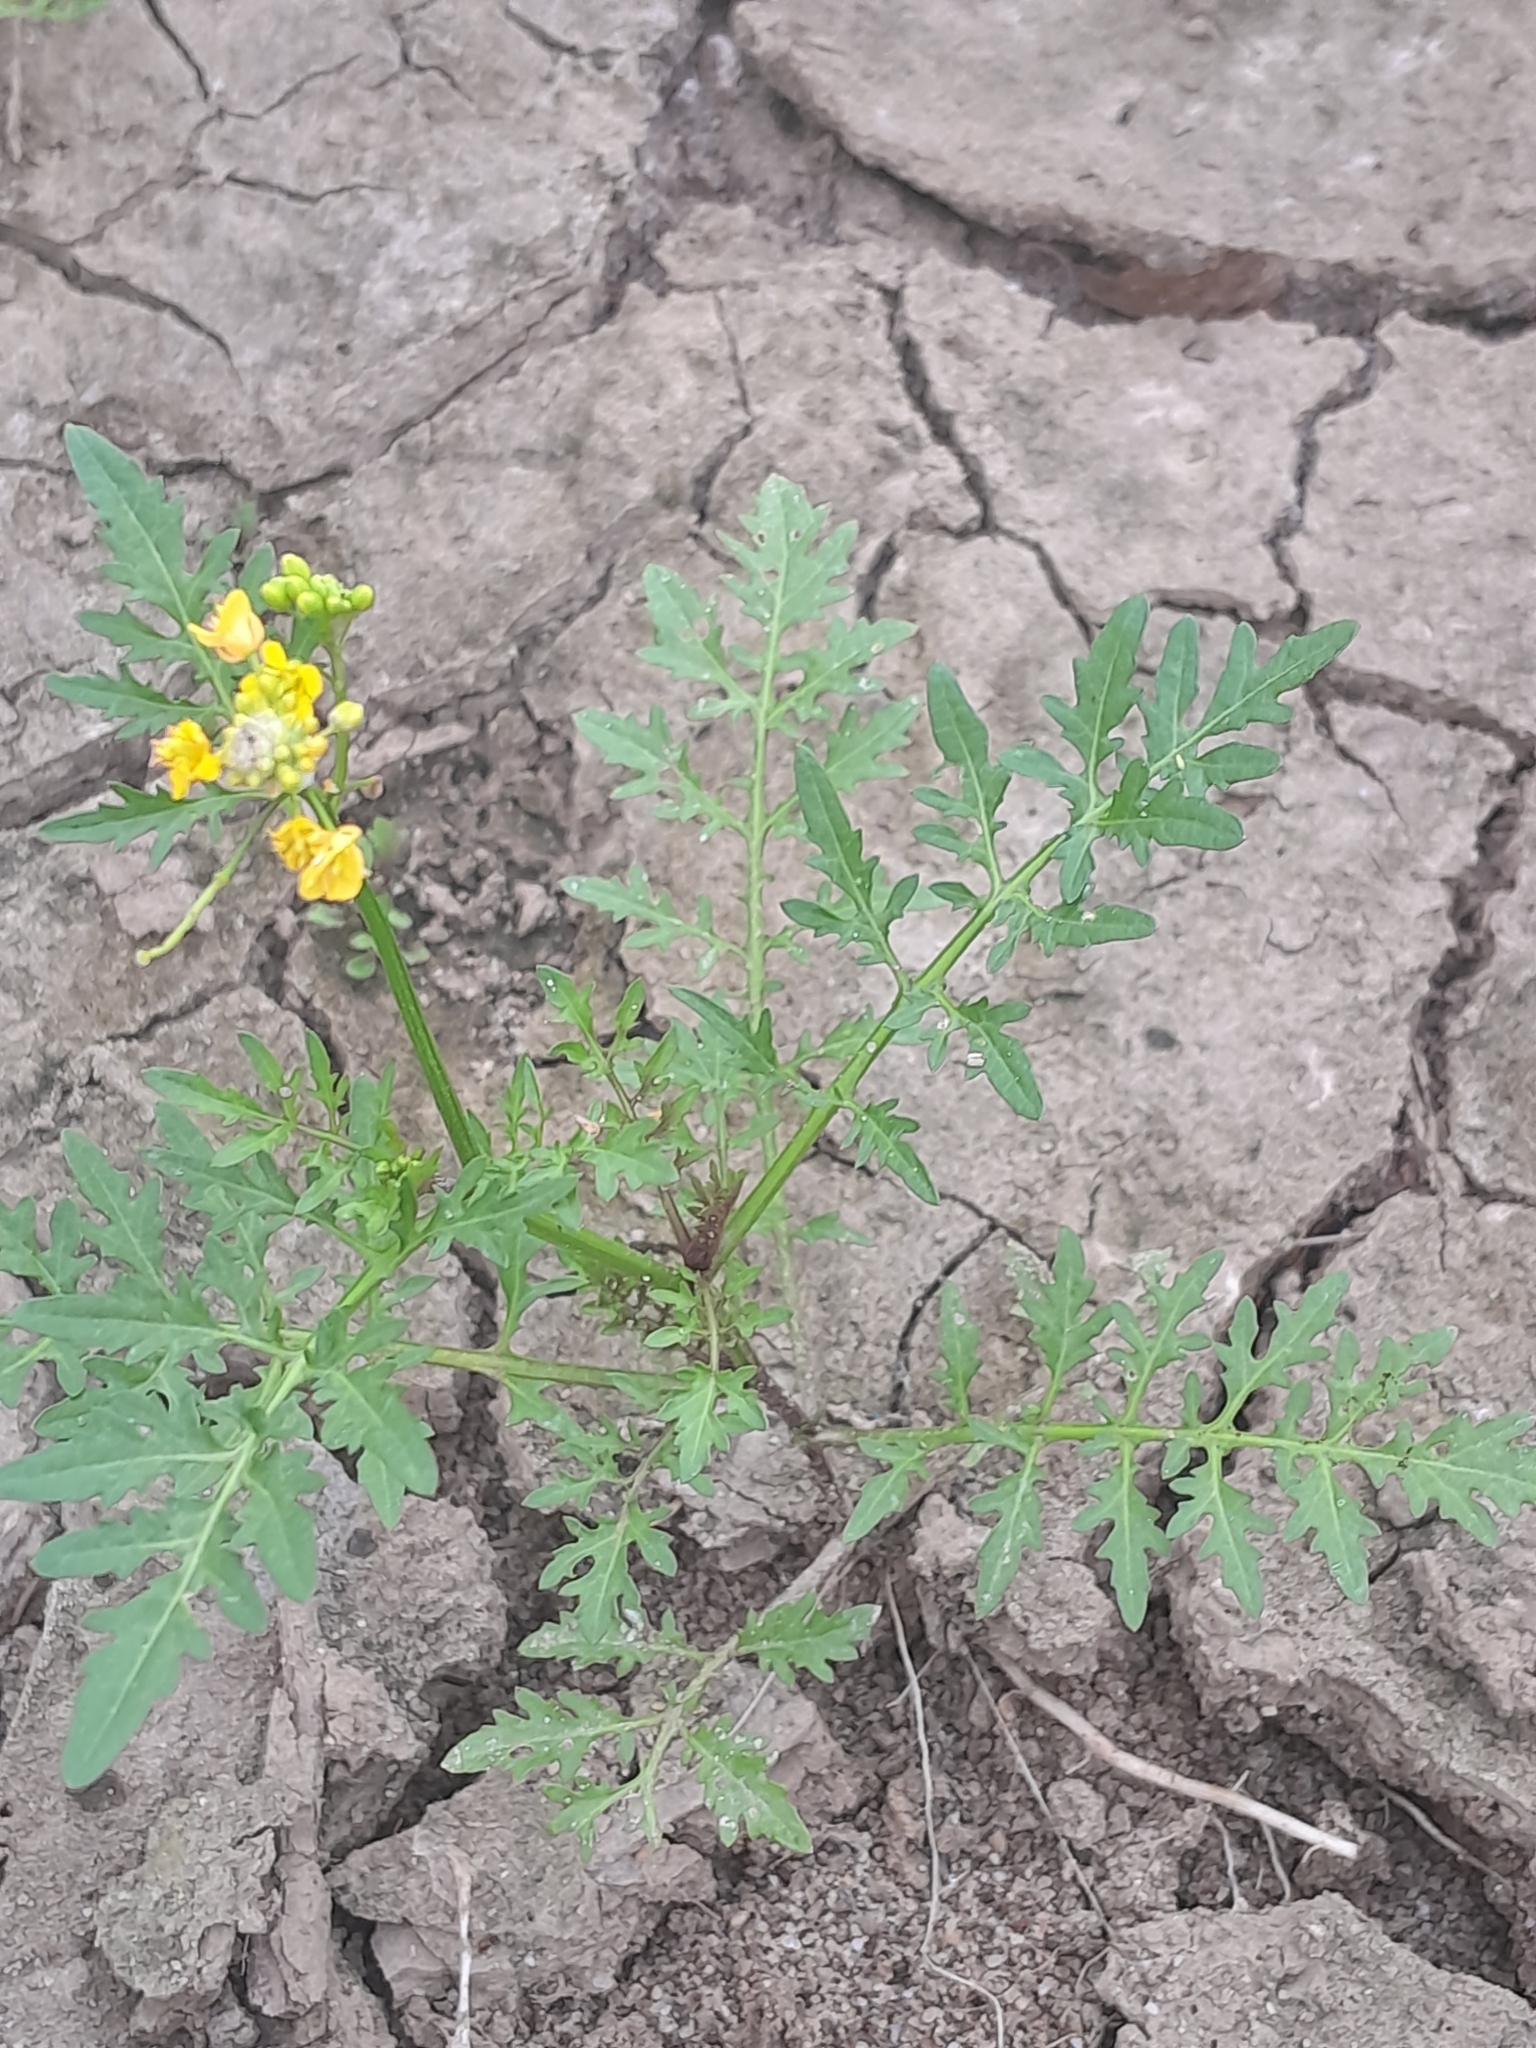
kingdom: Plantae
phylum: Tracheophyta
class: Magnoliopsida
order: Brassicales
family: Brassicaceae
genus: Rorippa
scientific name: Rorippa sylvestris
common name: Creeping yellowcress
